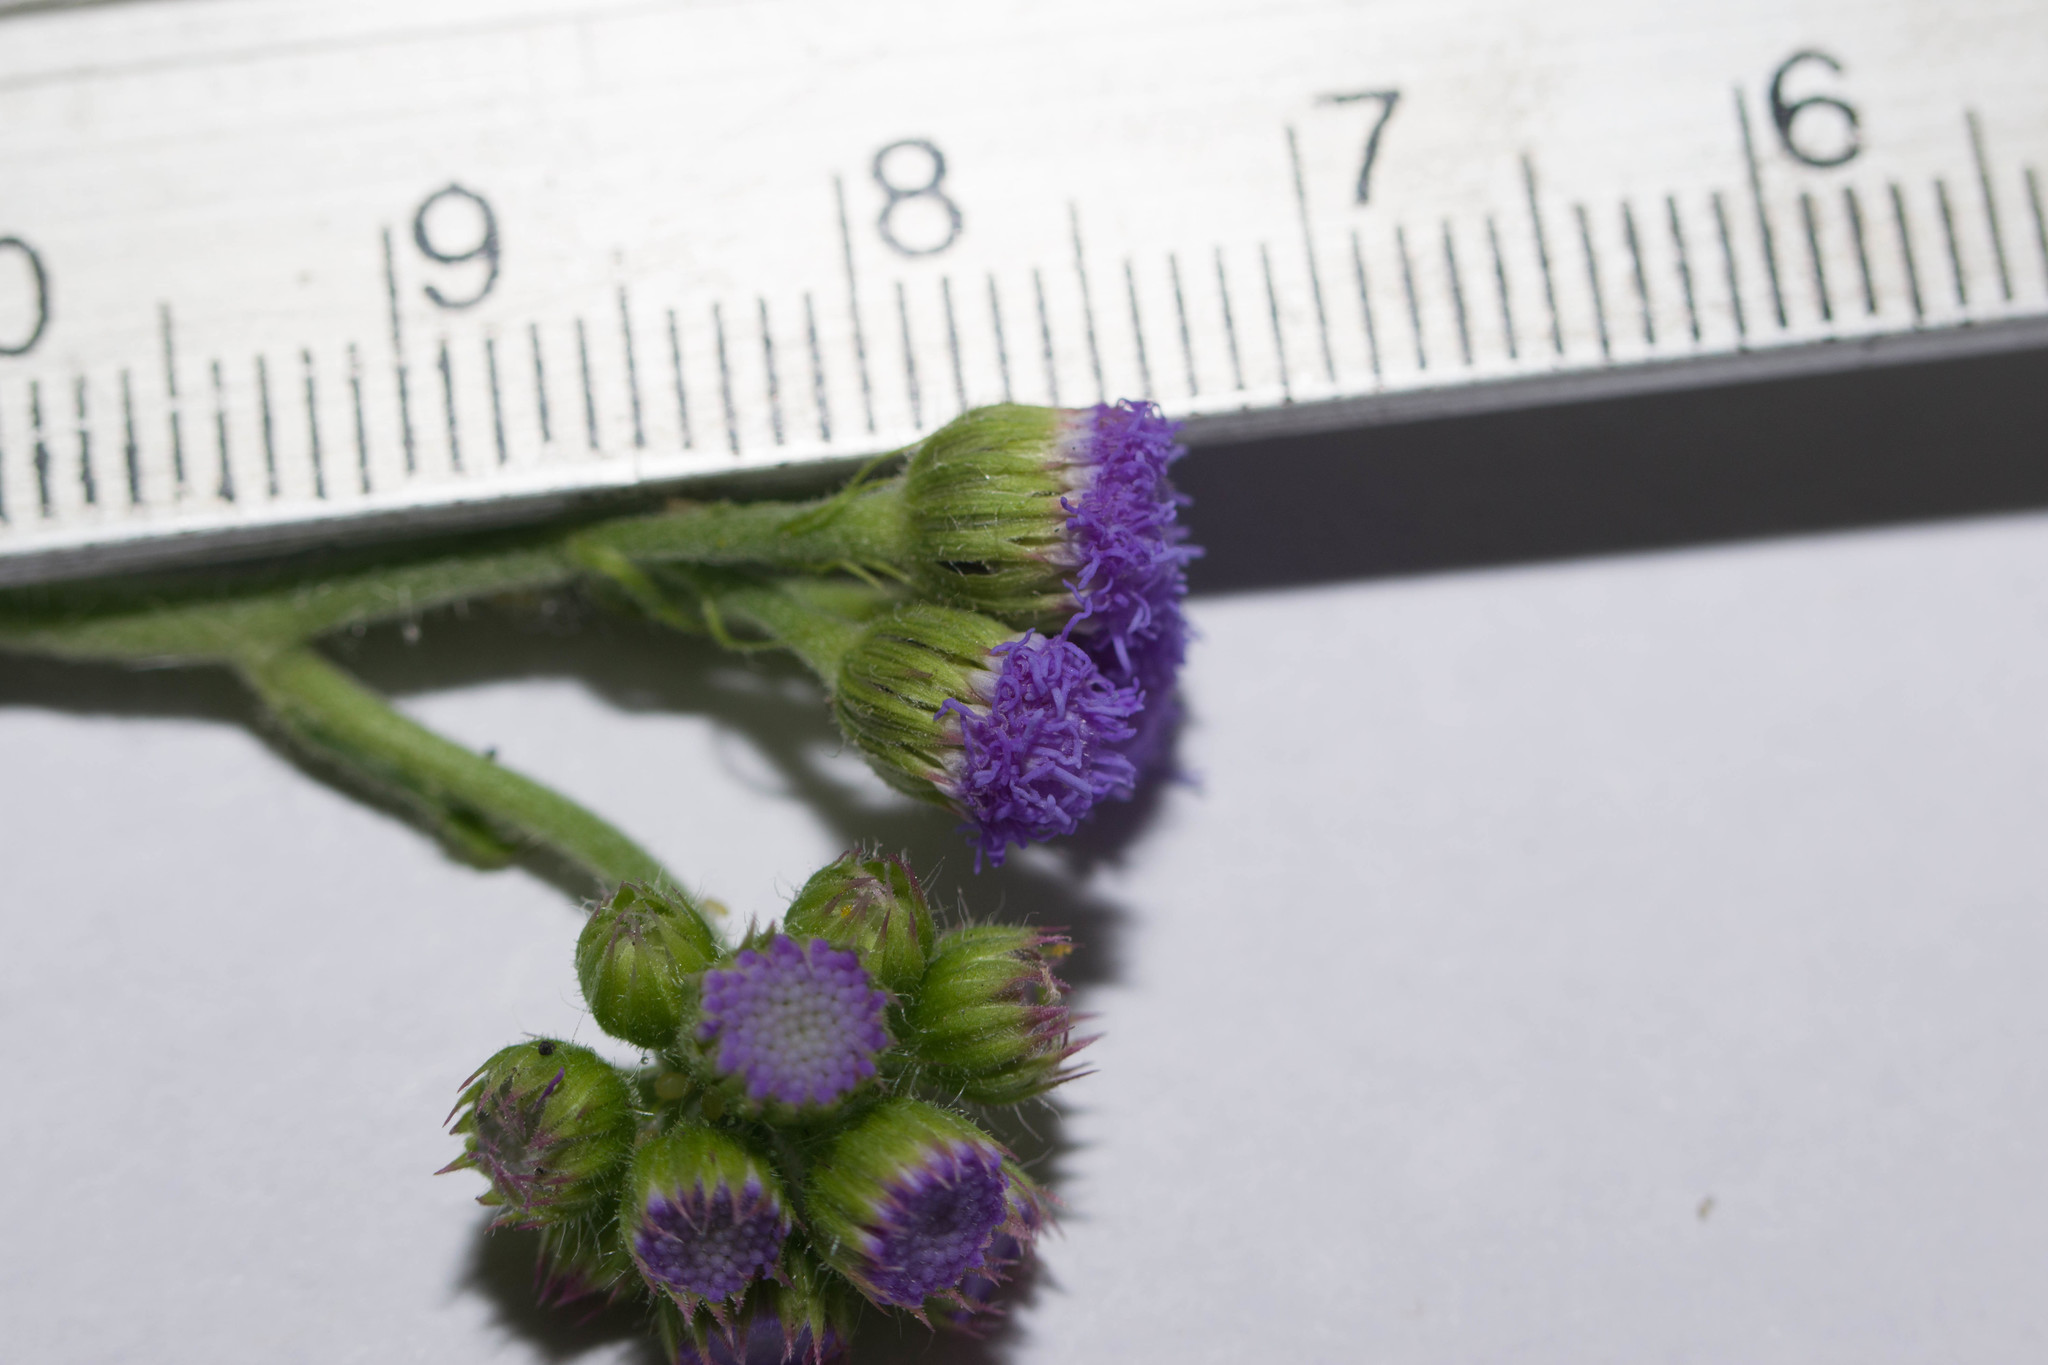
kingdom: Plantae
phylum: Tracheophyta
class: Magnoliopsida
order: Asterales
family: Asteraceae
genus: Ageratum
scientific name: Ageratum houstonianum
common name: Bluemink
